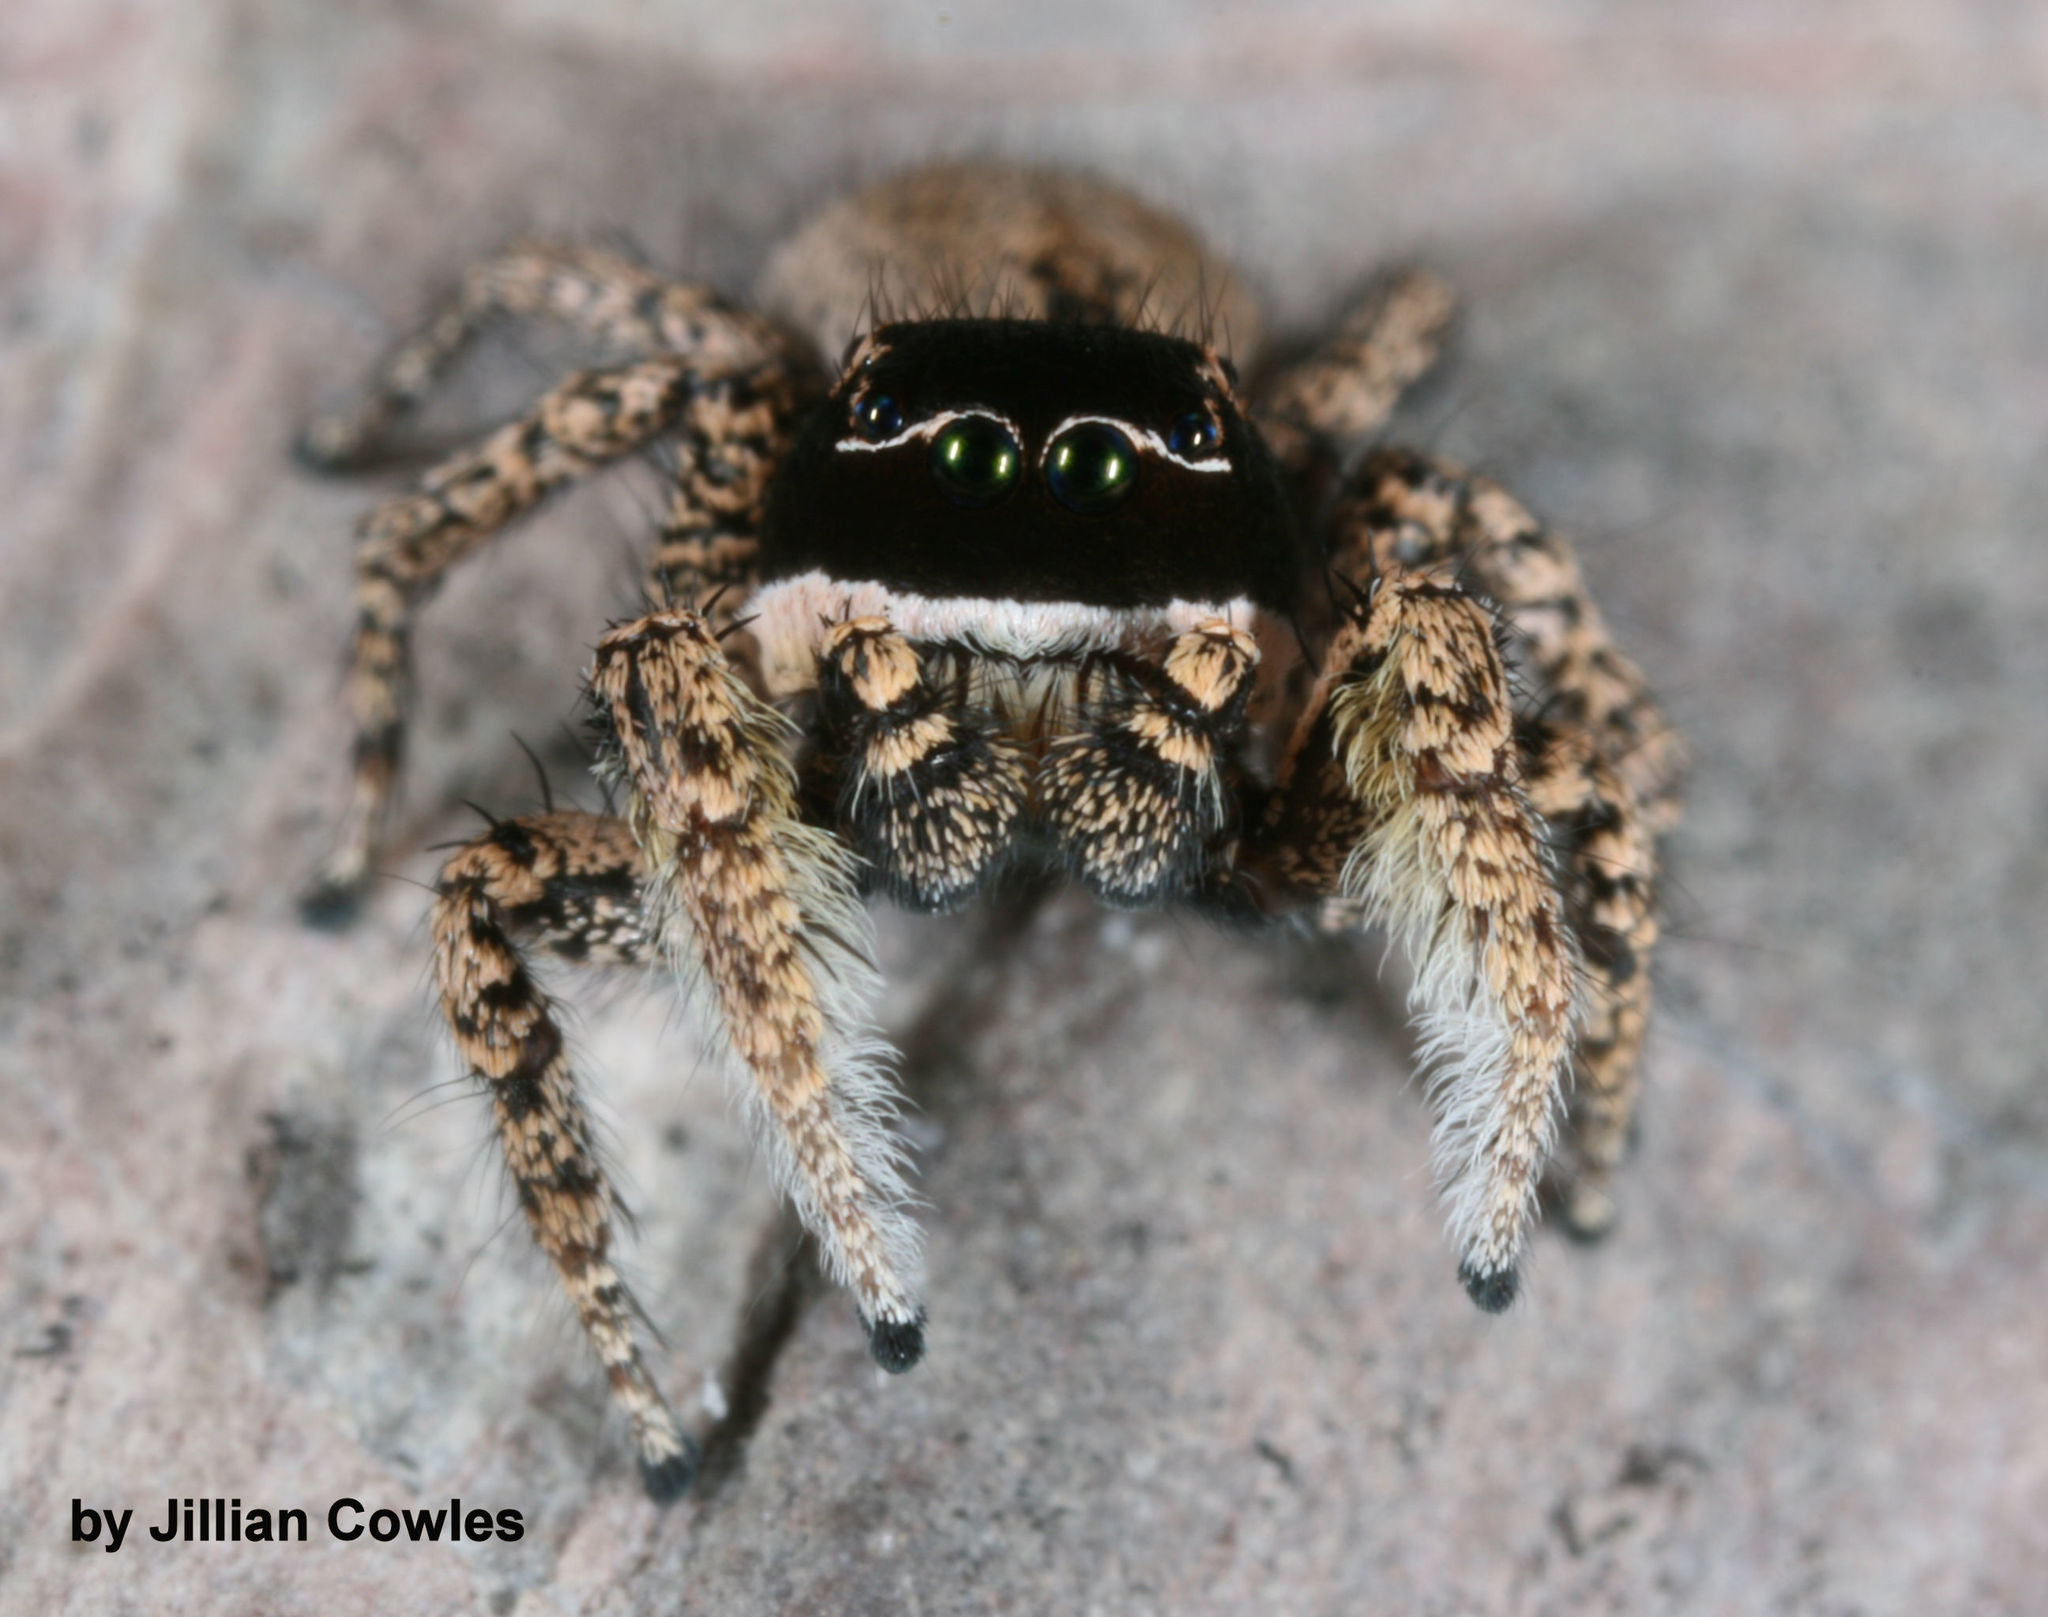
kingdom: Animalia
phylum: Arthropoda
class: Arachnida
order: Araneae
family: Salticidae
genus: Habronattus
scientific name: Habronattus pugillis
